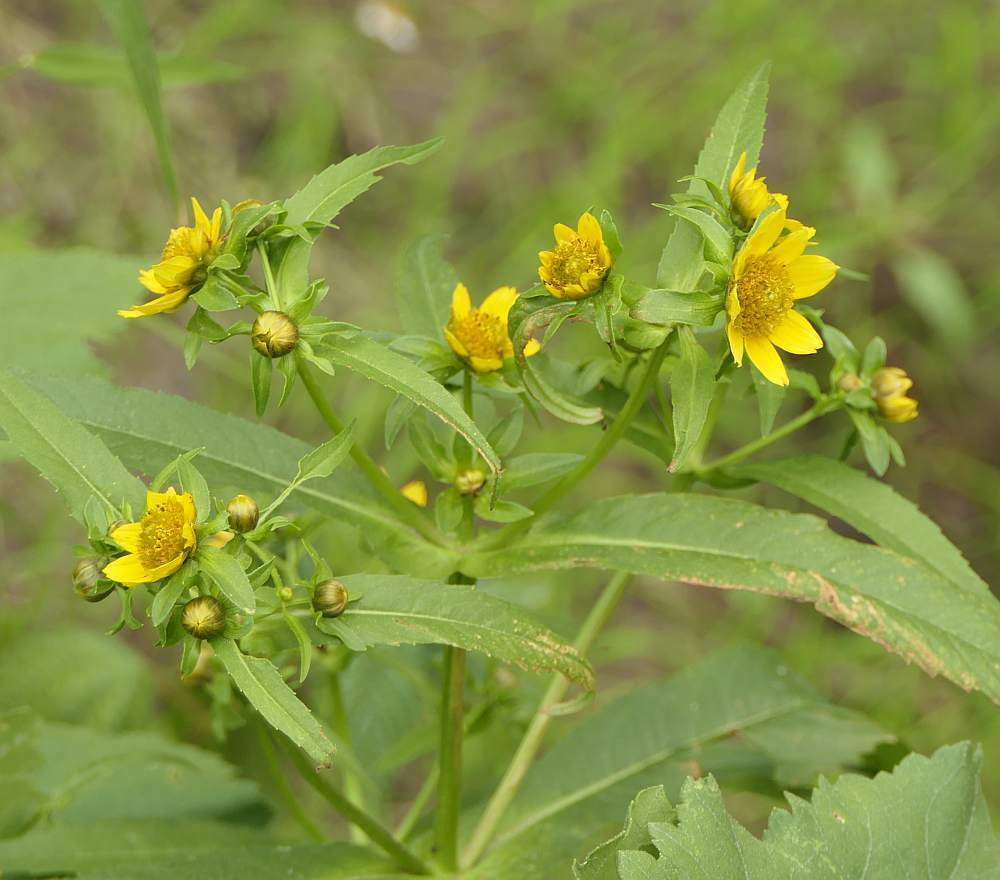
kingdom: Plantae
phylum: Tracheophyta
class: Magnoliopsida
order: Asterales
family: Asteraceae
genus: Bidens
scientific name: Bidens cernua
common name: Nodding bur-marigold
